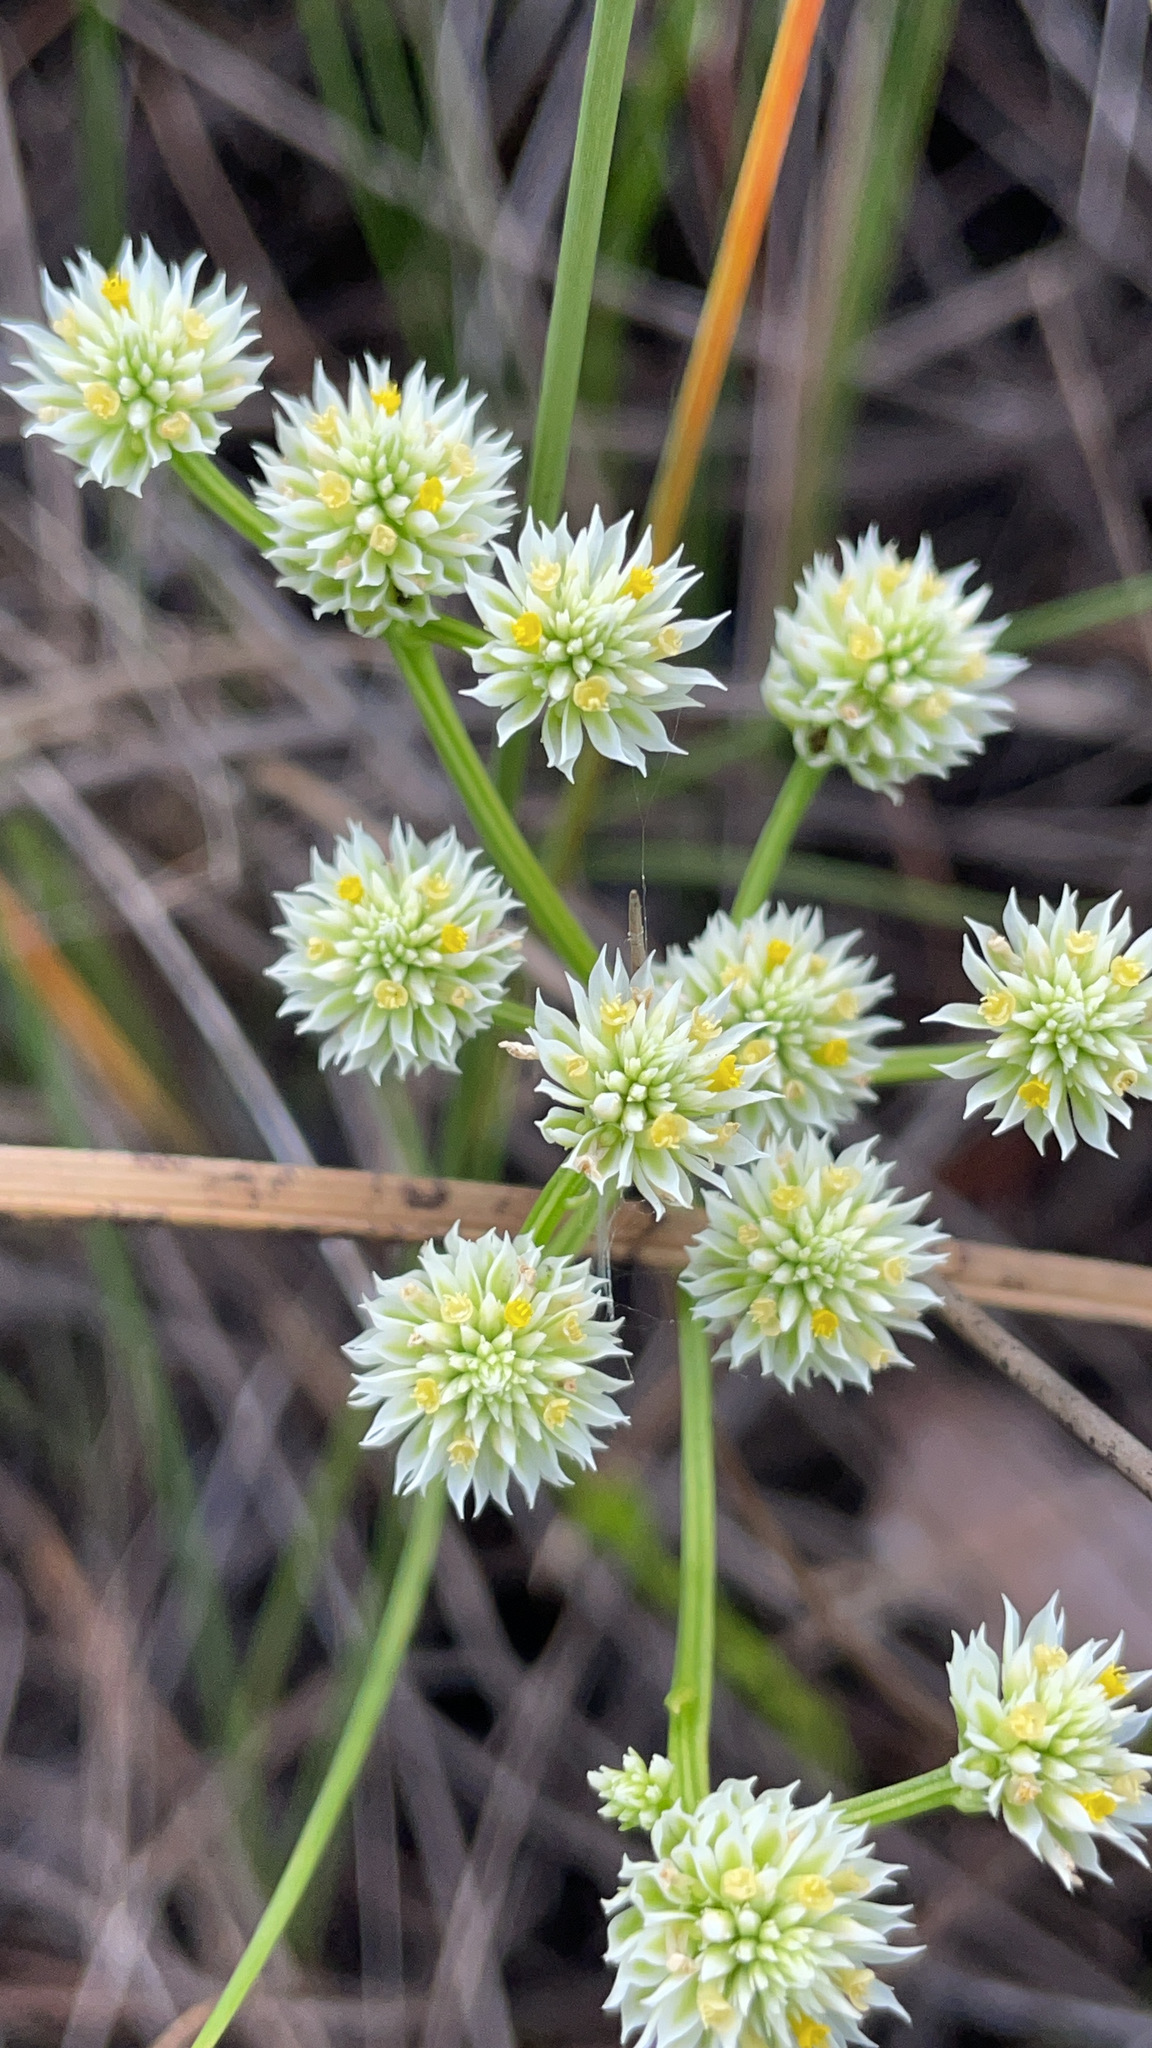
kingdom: Plantae
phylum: Tracheophyta
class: Magnoliopsida
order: Fabales
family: Polygalaceae
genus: Polygala
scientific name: Polygala baldwinii
